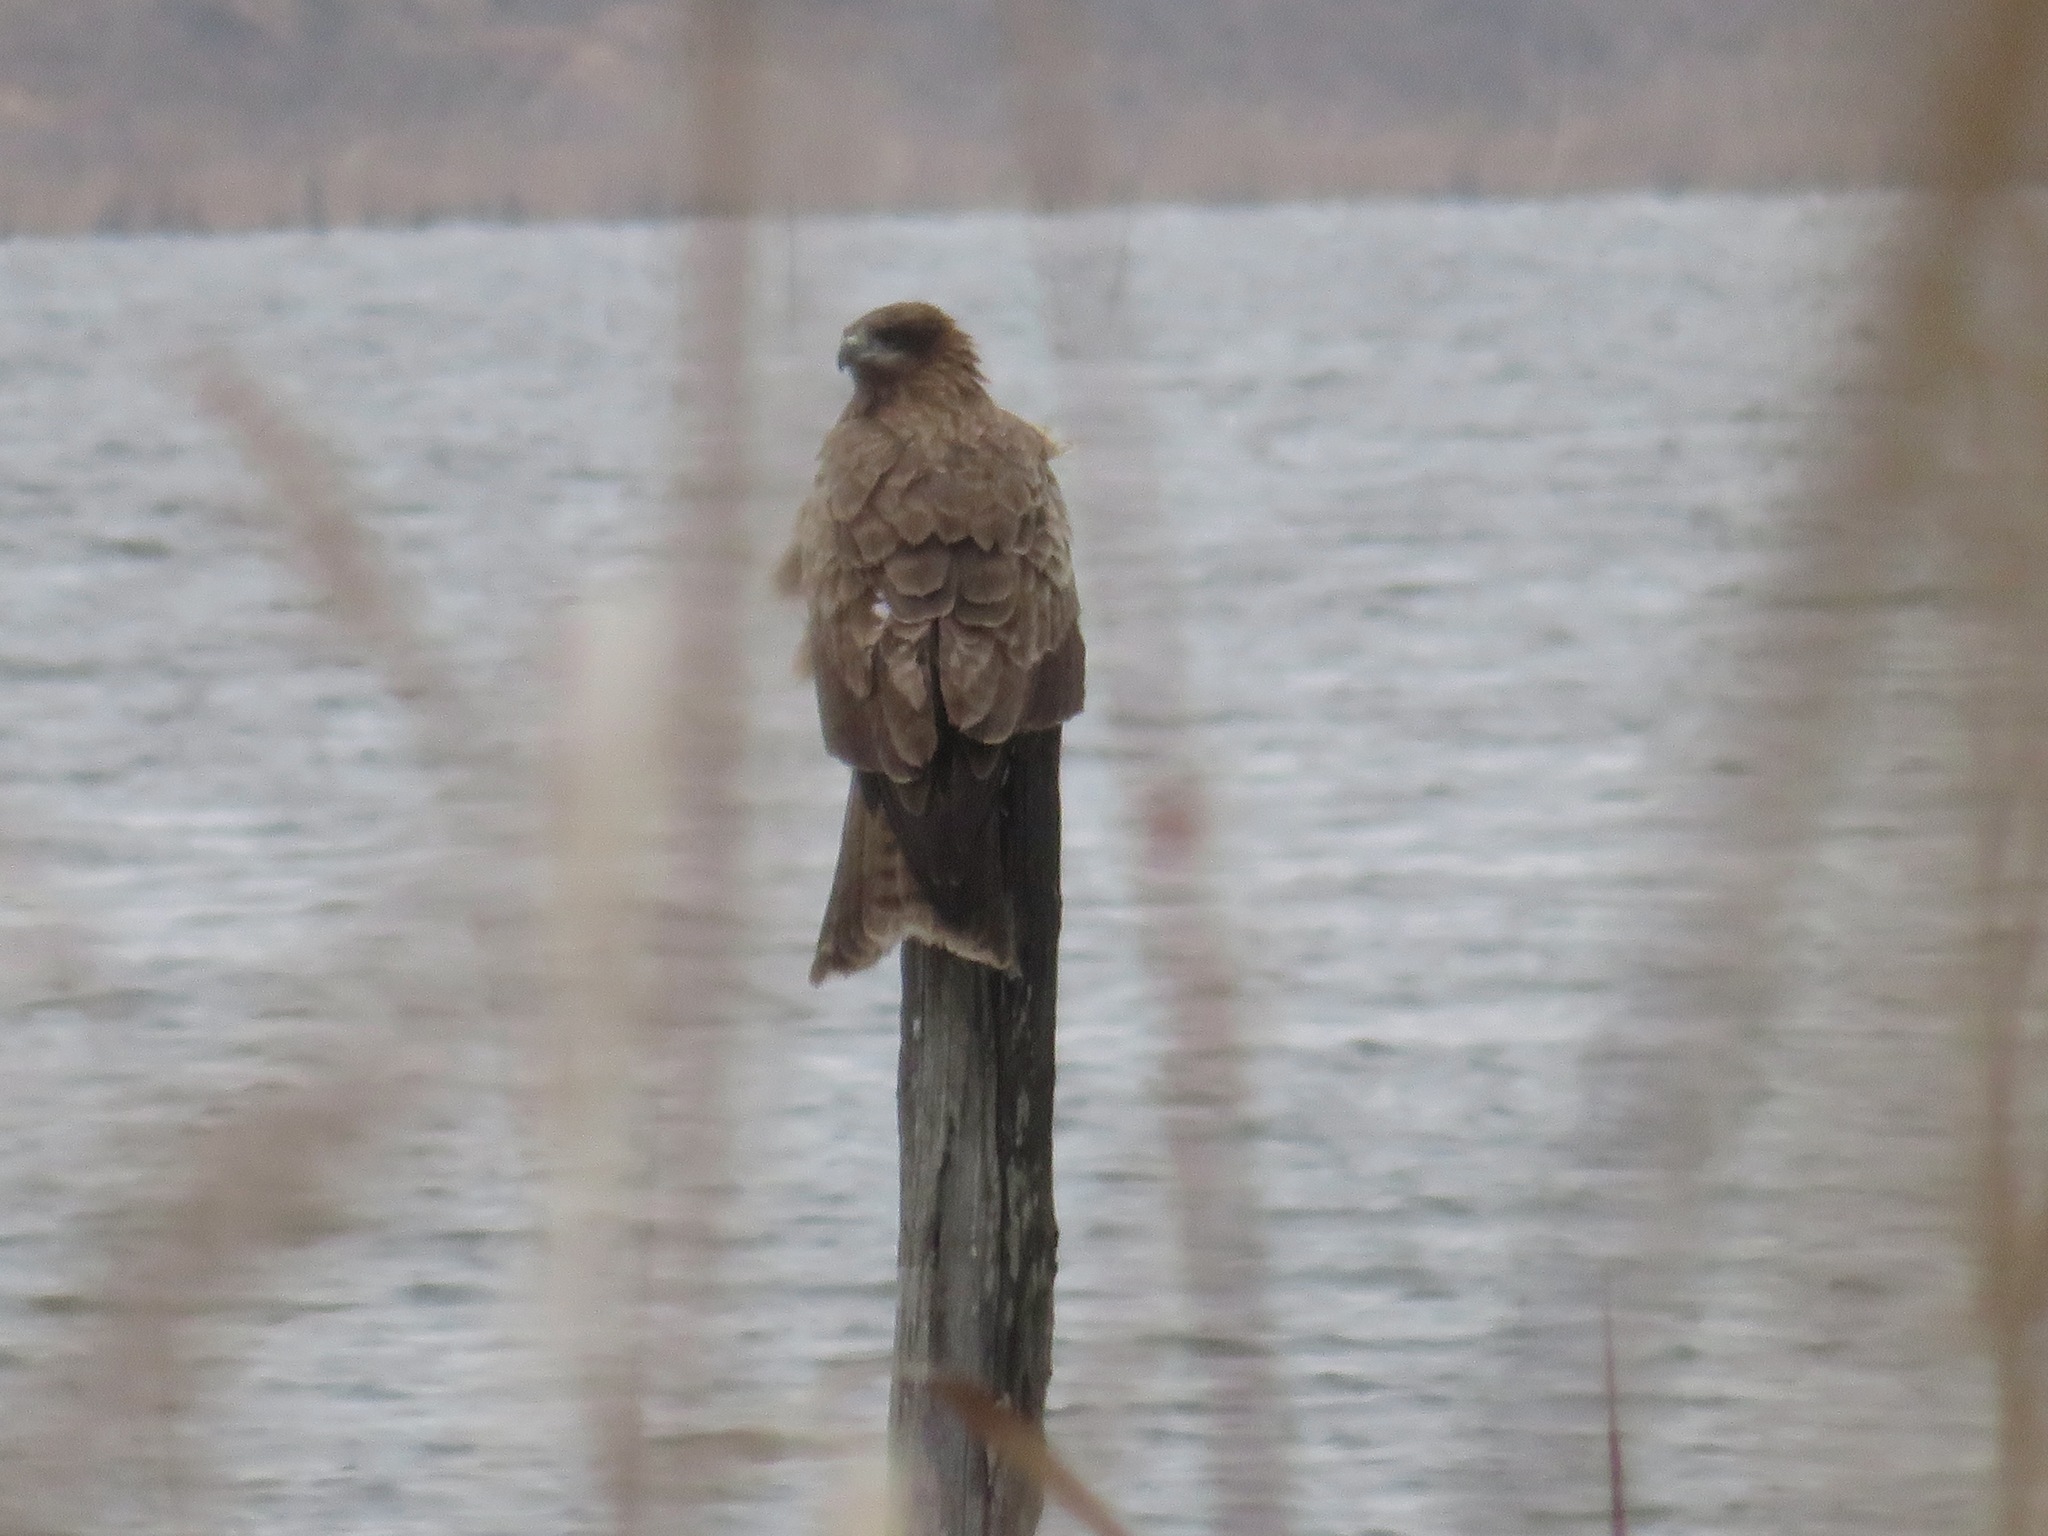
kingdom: Animalia
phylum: Chordata
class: Aves
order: Accipitriformes
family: Accipitridae
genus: Milvus
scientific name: Milvus migrans
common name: Black kite
